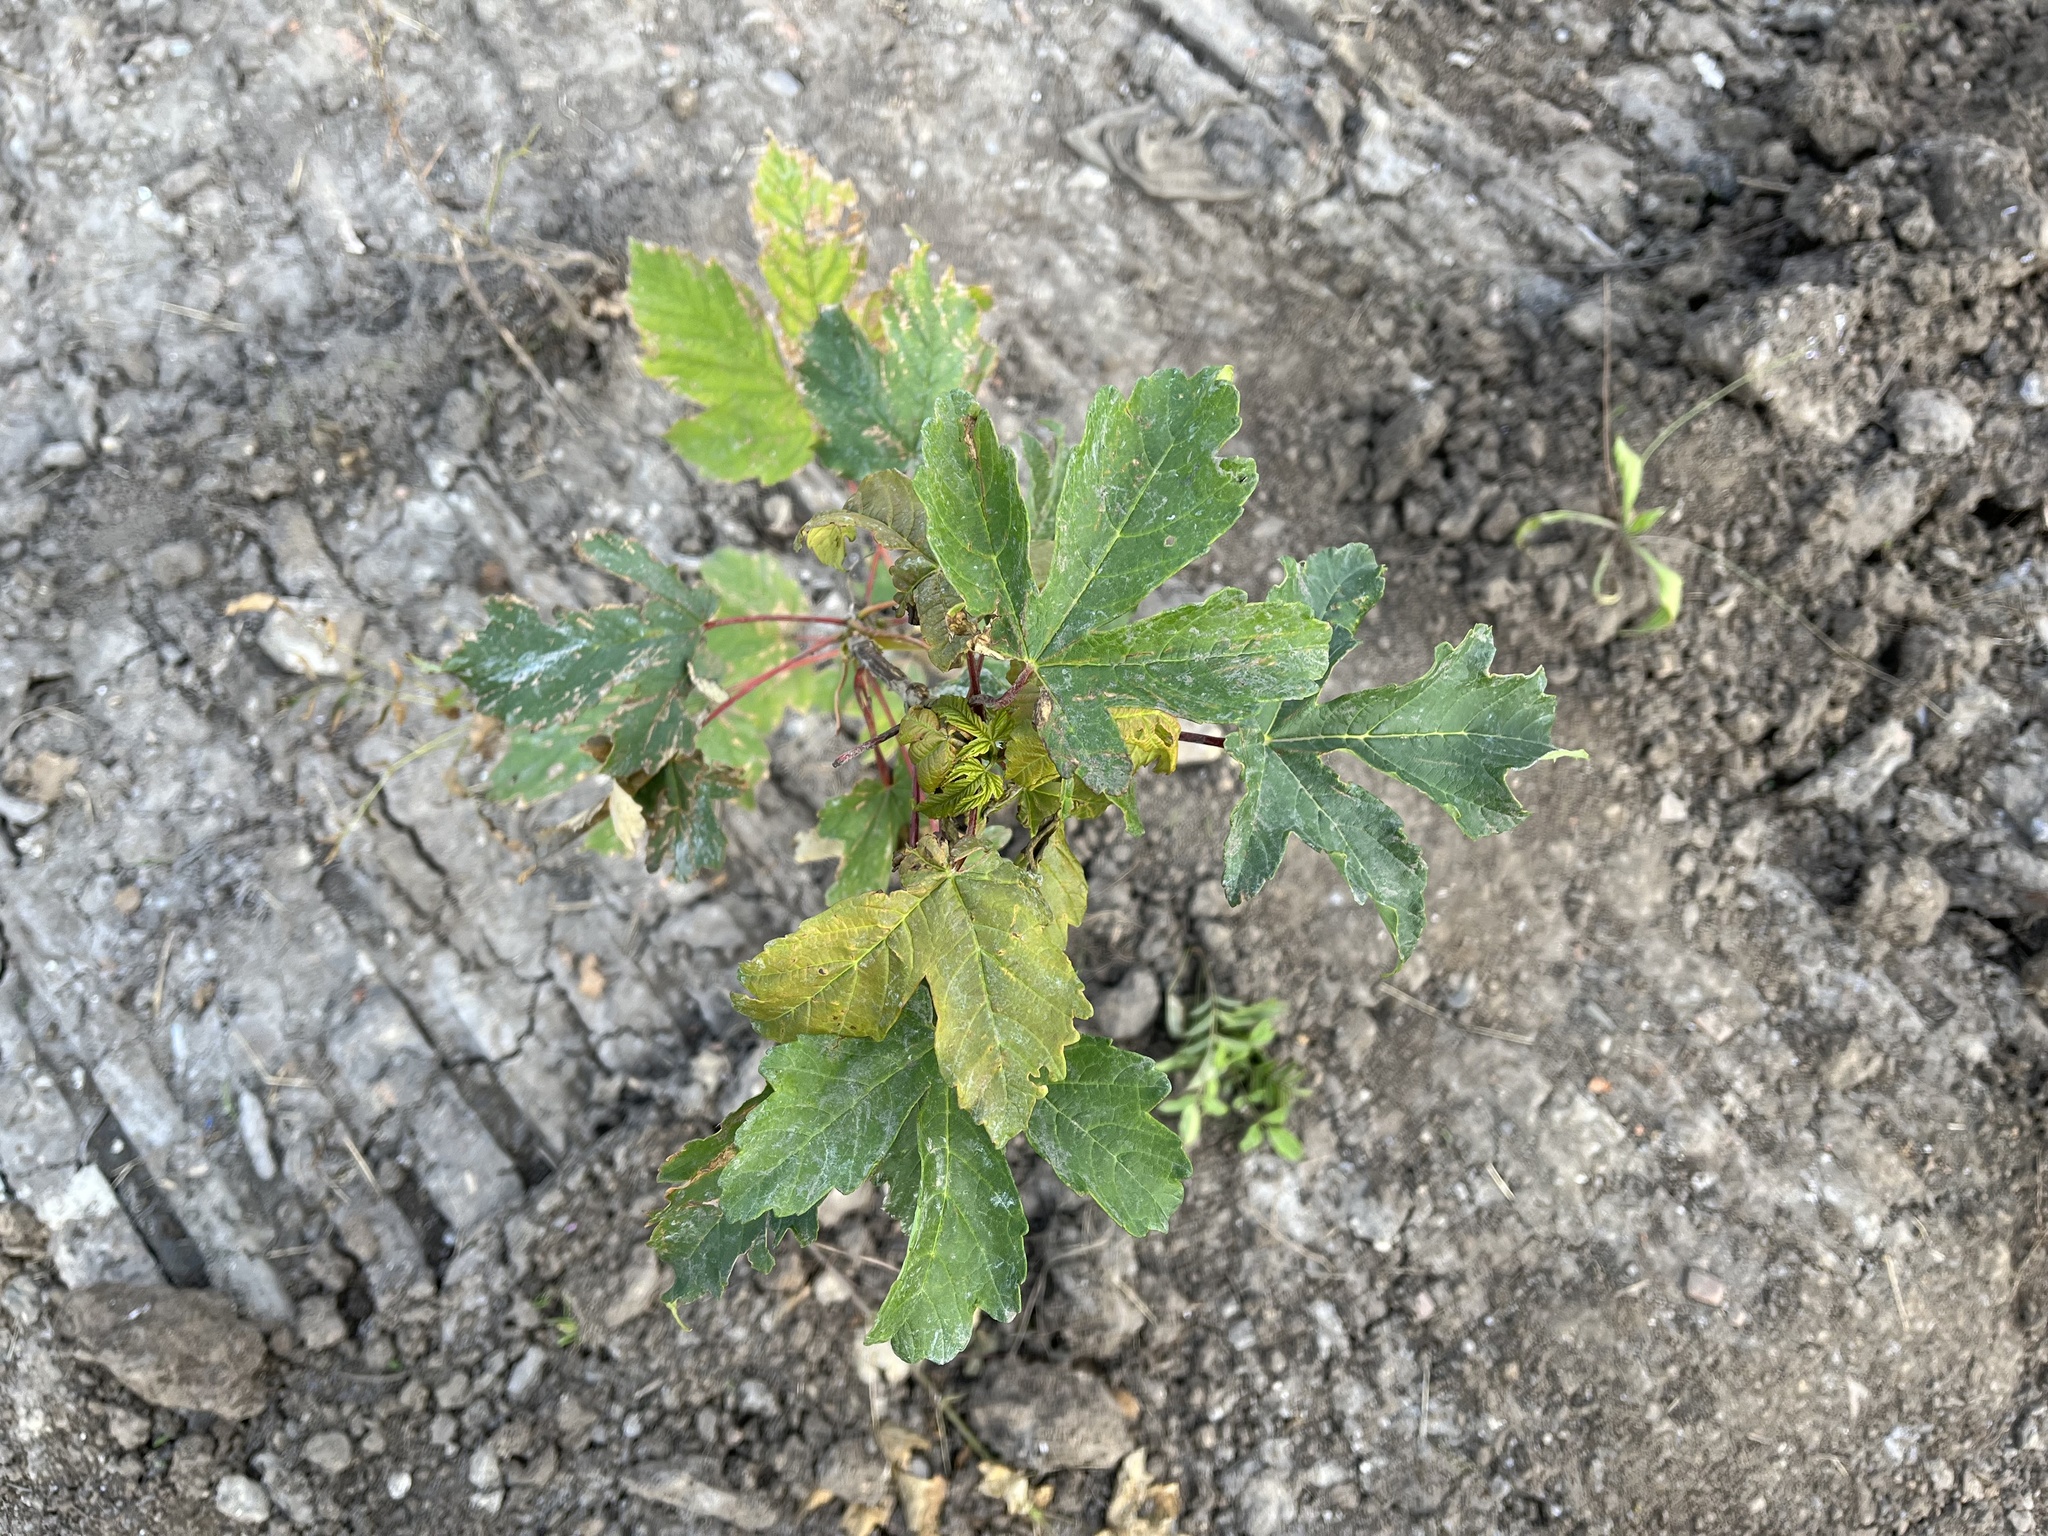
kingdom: Plantae
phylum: Tracheophyta
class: Magnoliopsida
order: Sapindales
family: Sapindaceae
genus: Acer
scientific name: Acer pseudoplatanus
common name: Sycamore
